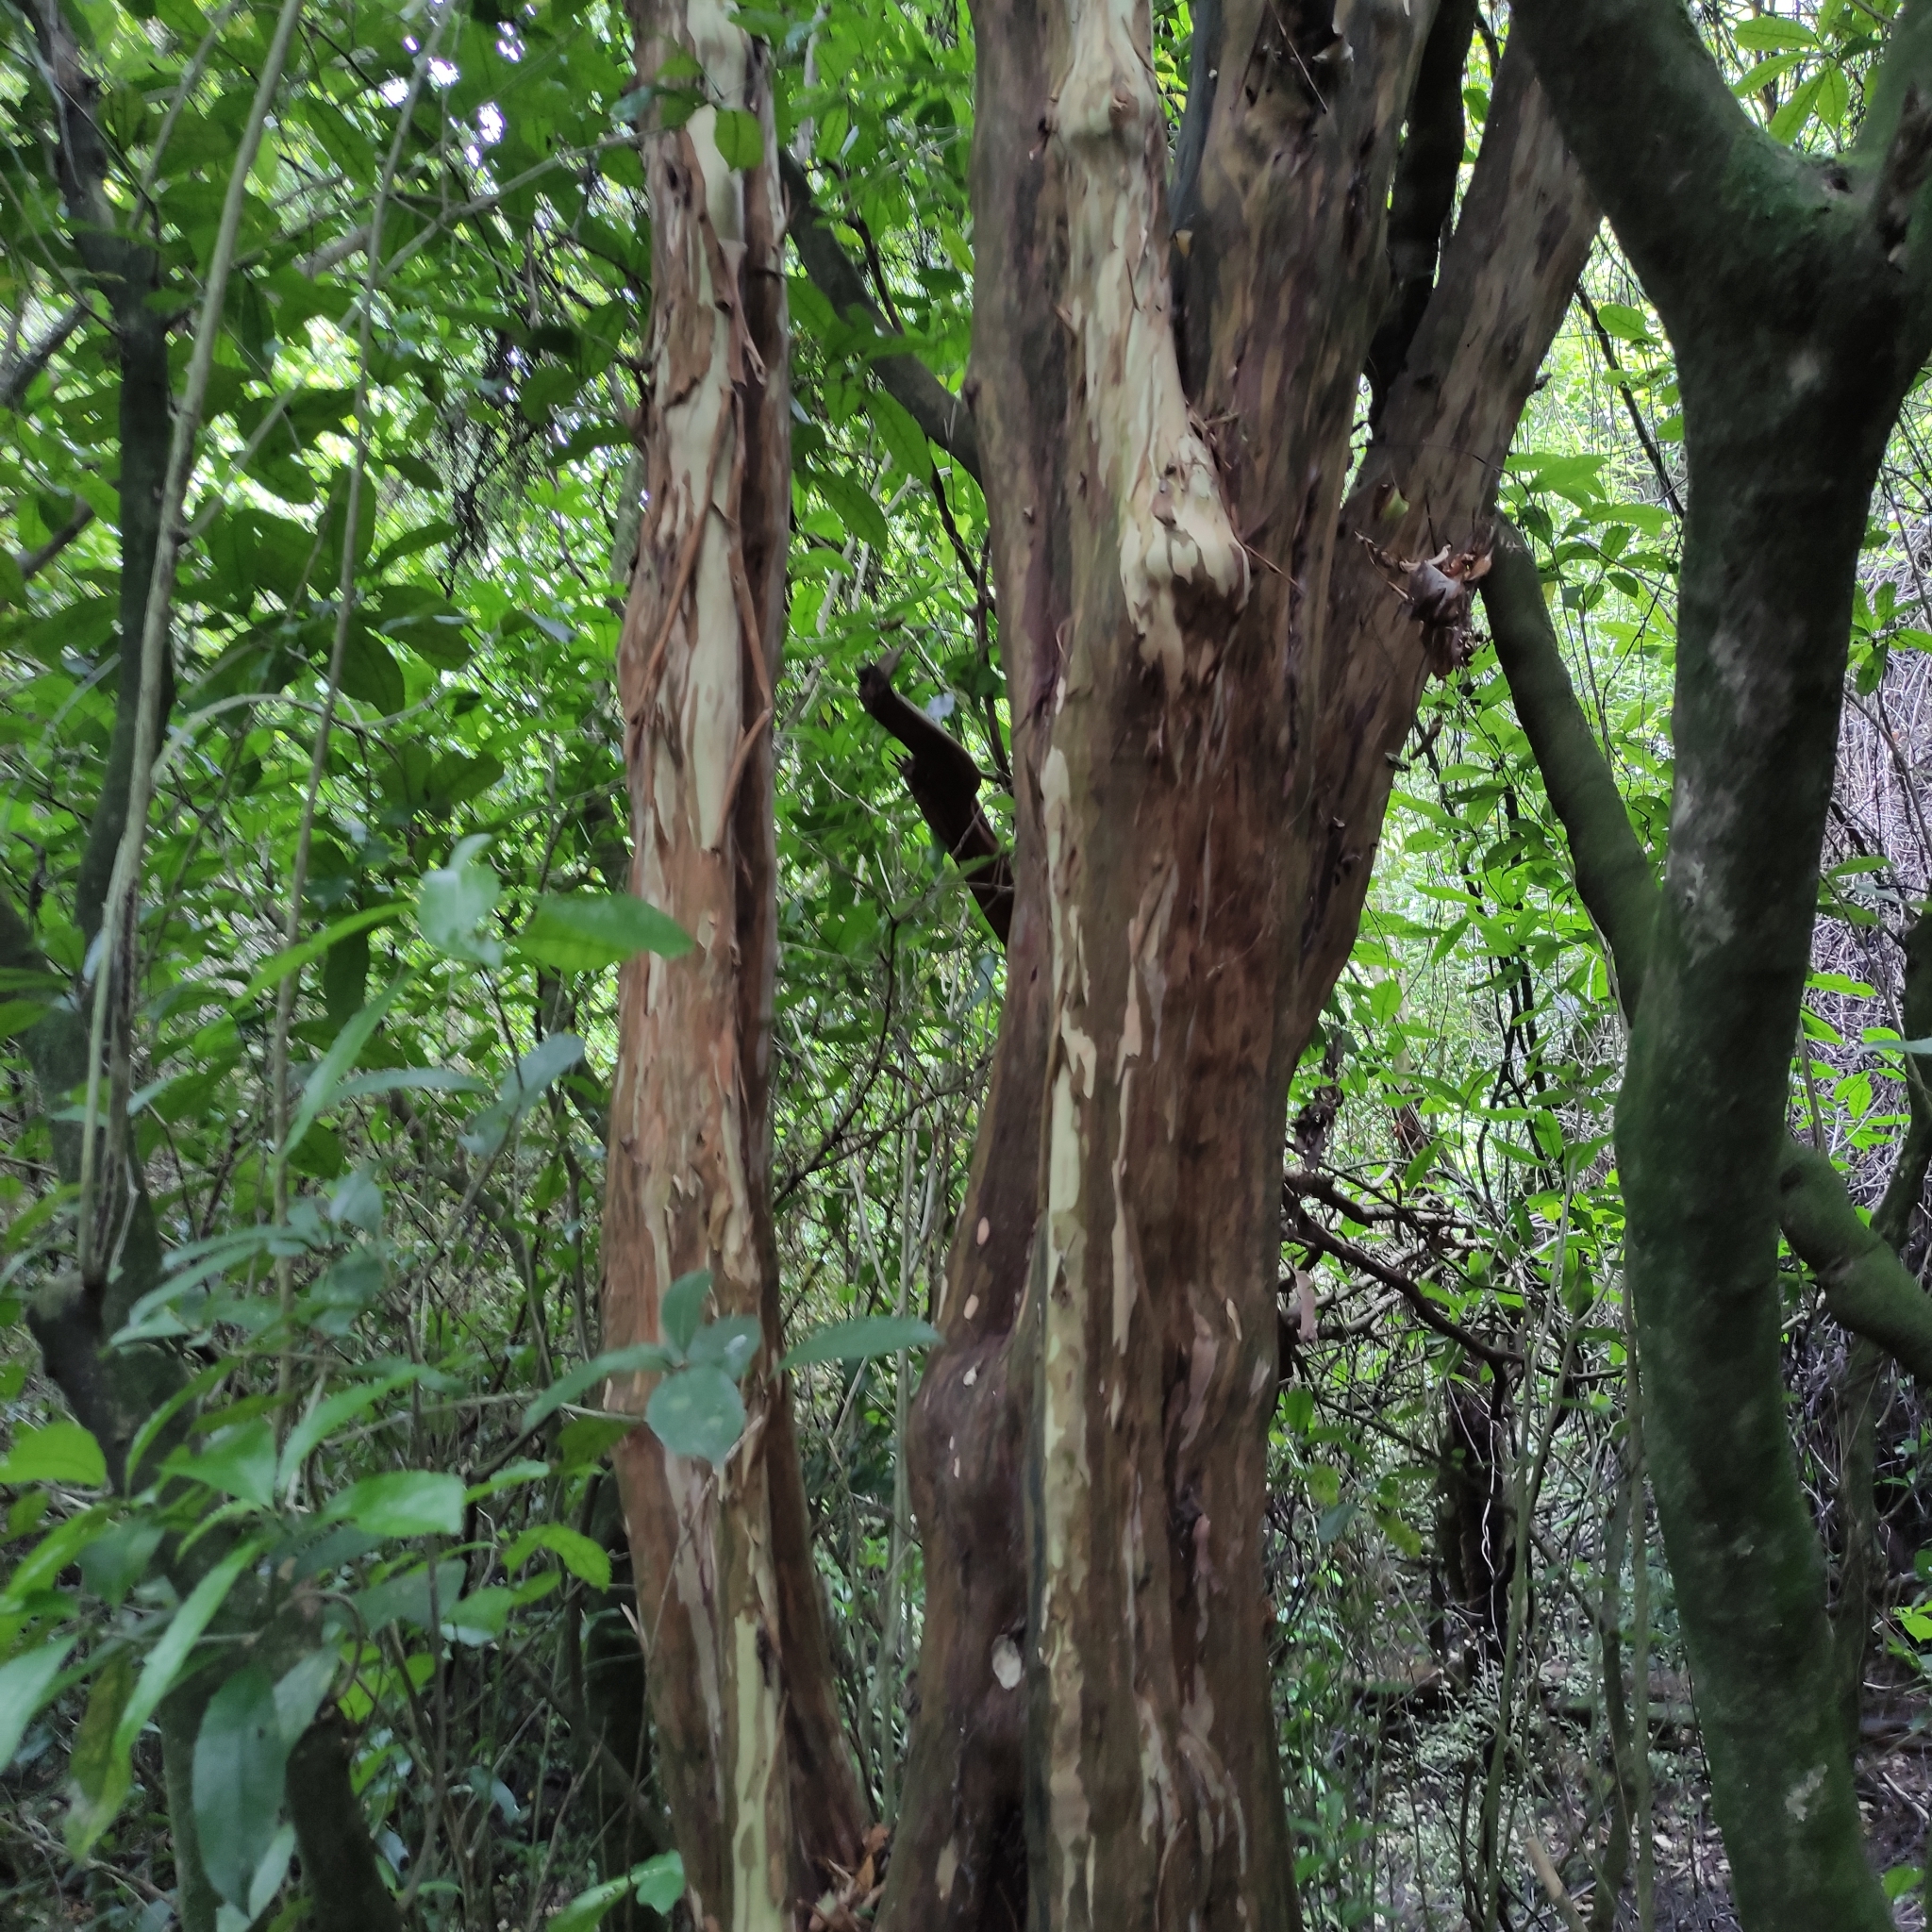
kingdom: Plantae
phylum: Tracheophyta
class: Magnoliopsida
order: Myrtales
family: Myrtaceae
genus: Lophomyrtus
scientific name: Lophomyrtus obcordata
